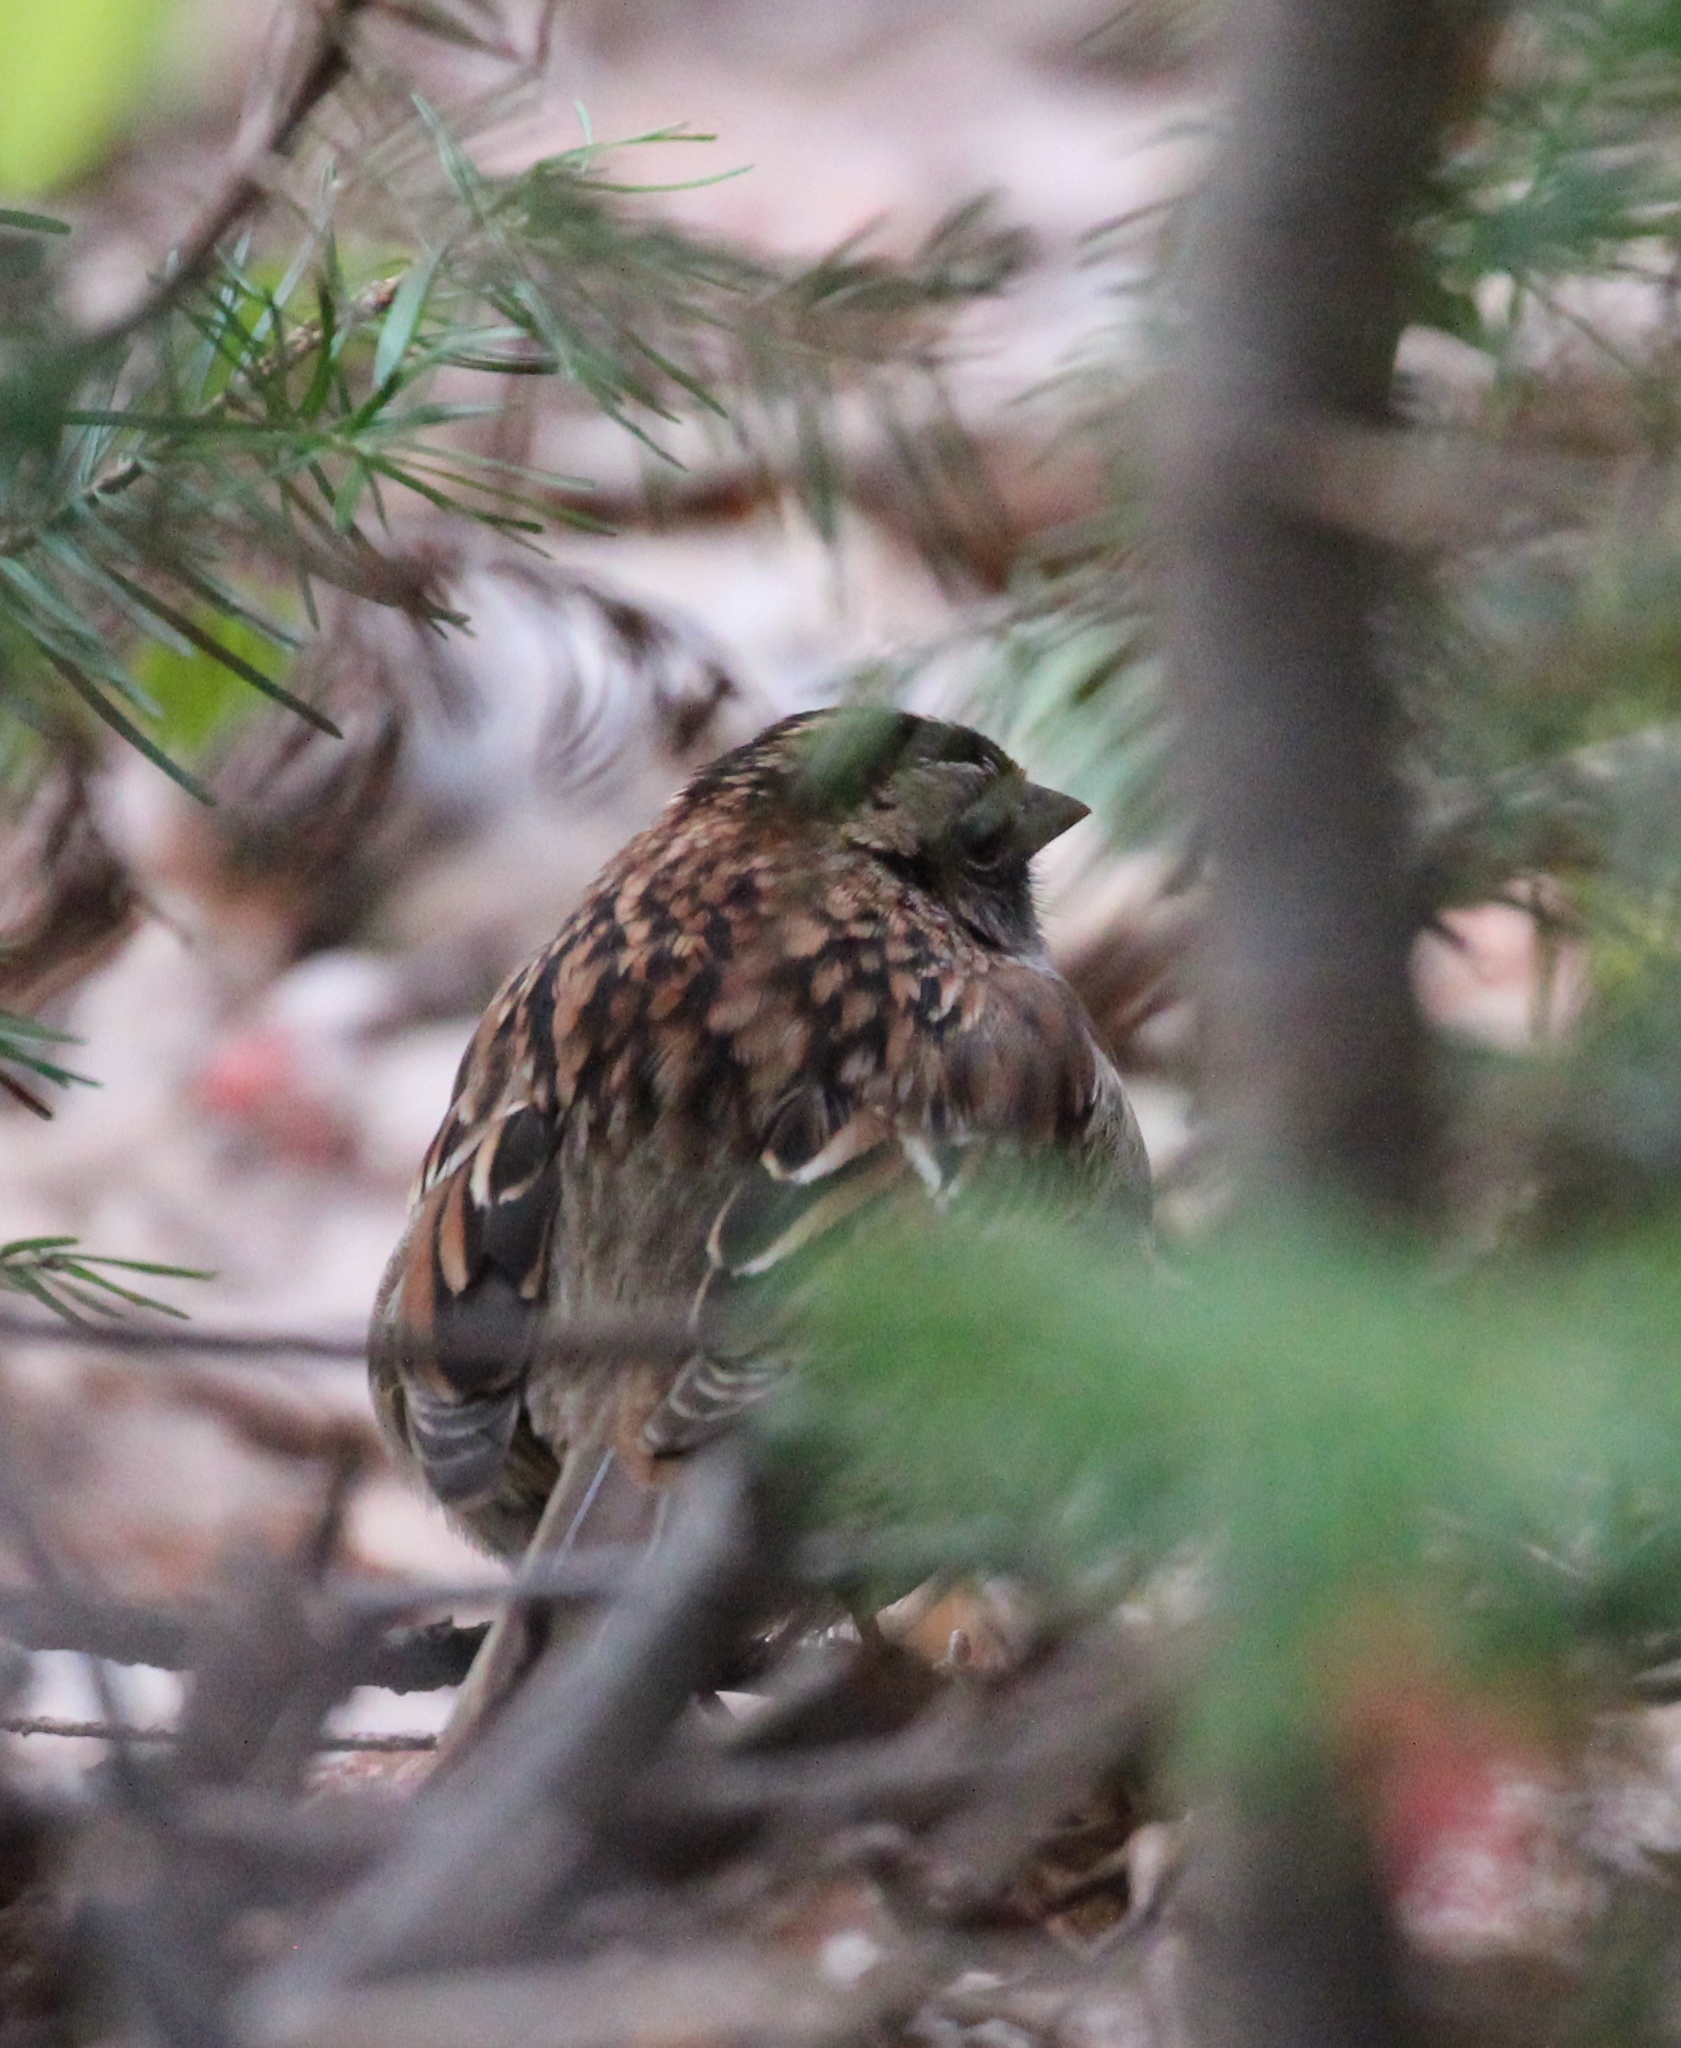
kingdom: Animalia
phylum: Chordata
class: Aves
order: Passeriformes
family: Passerellidae
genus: Zonotrichia
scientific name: Zonotrichia albicollis
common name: White-throated sparrow
